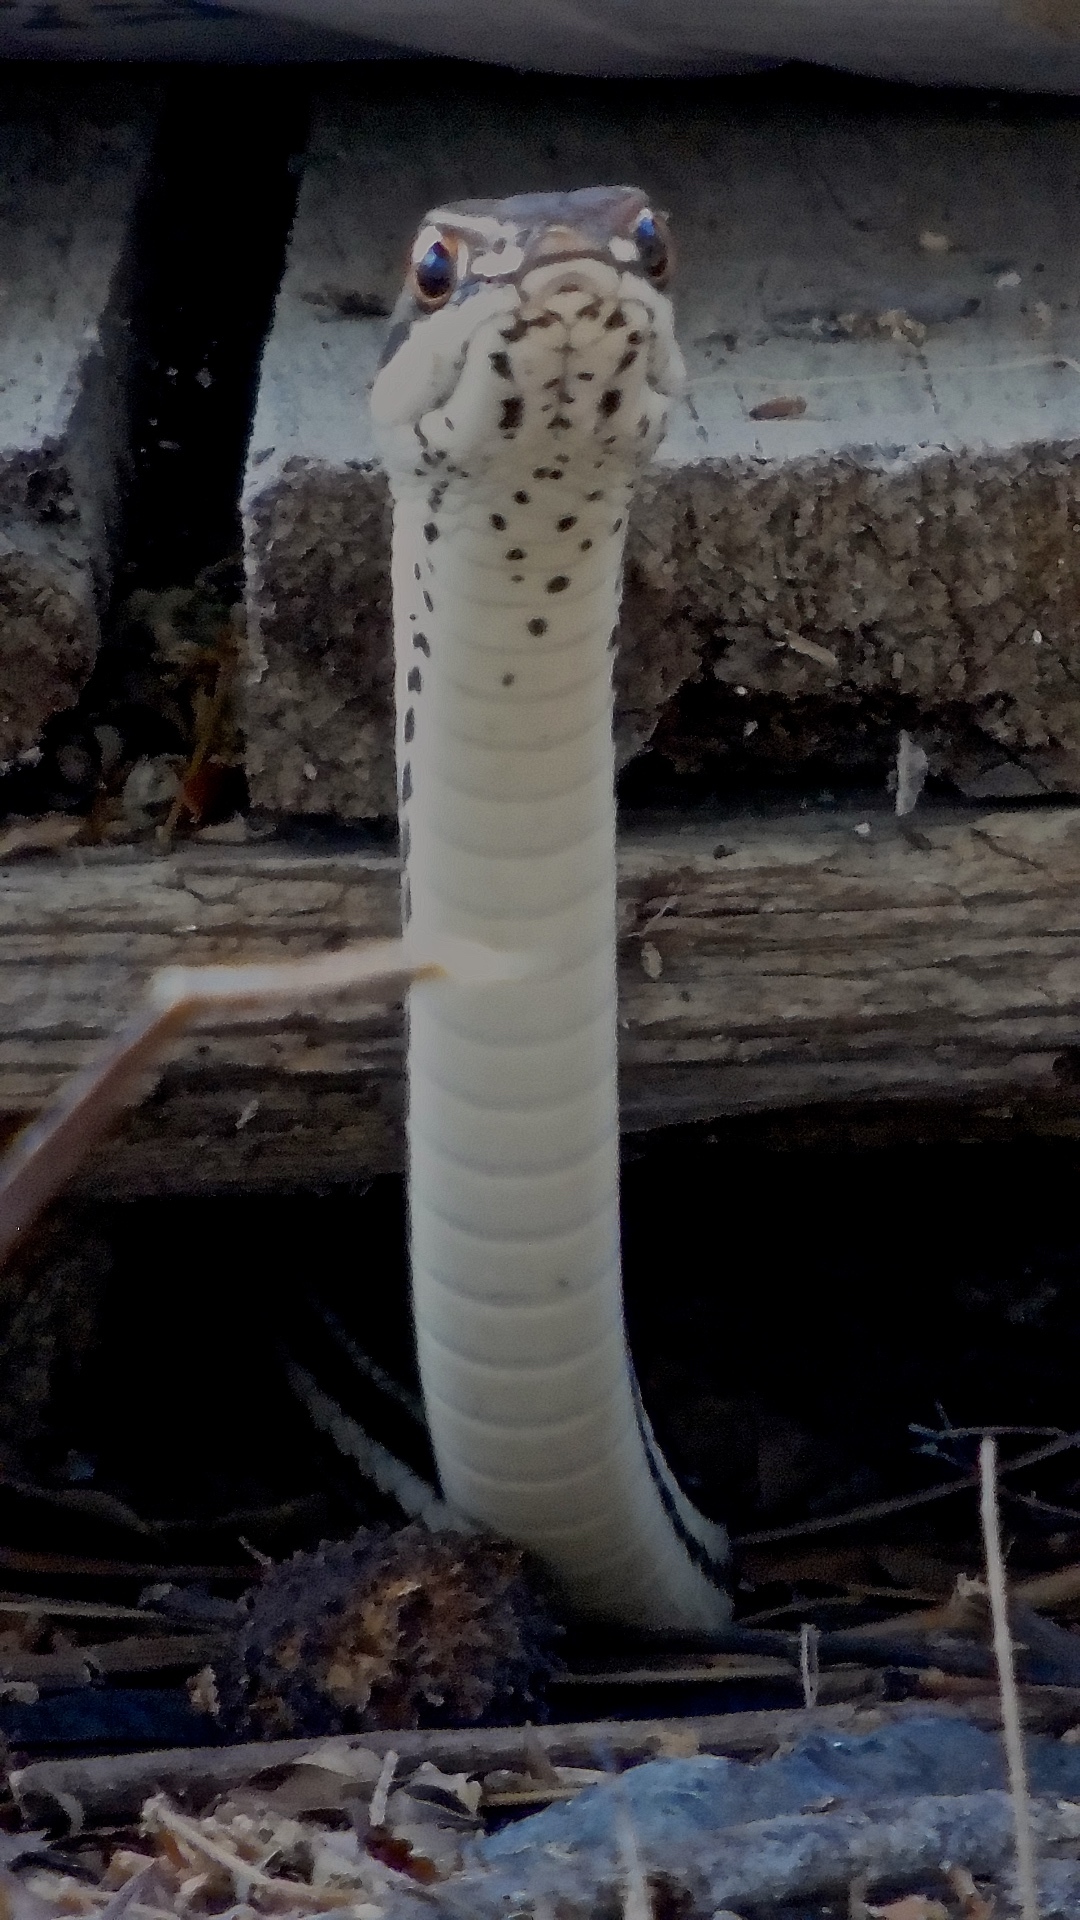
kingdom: Animalia
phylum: Chordata
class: Squamata
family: Colubridae
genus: Masticophis
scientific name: Masticophis bilineatus
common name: Sonoran whipsnake
